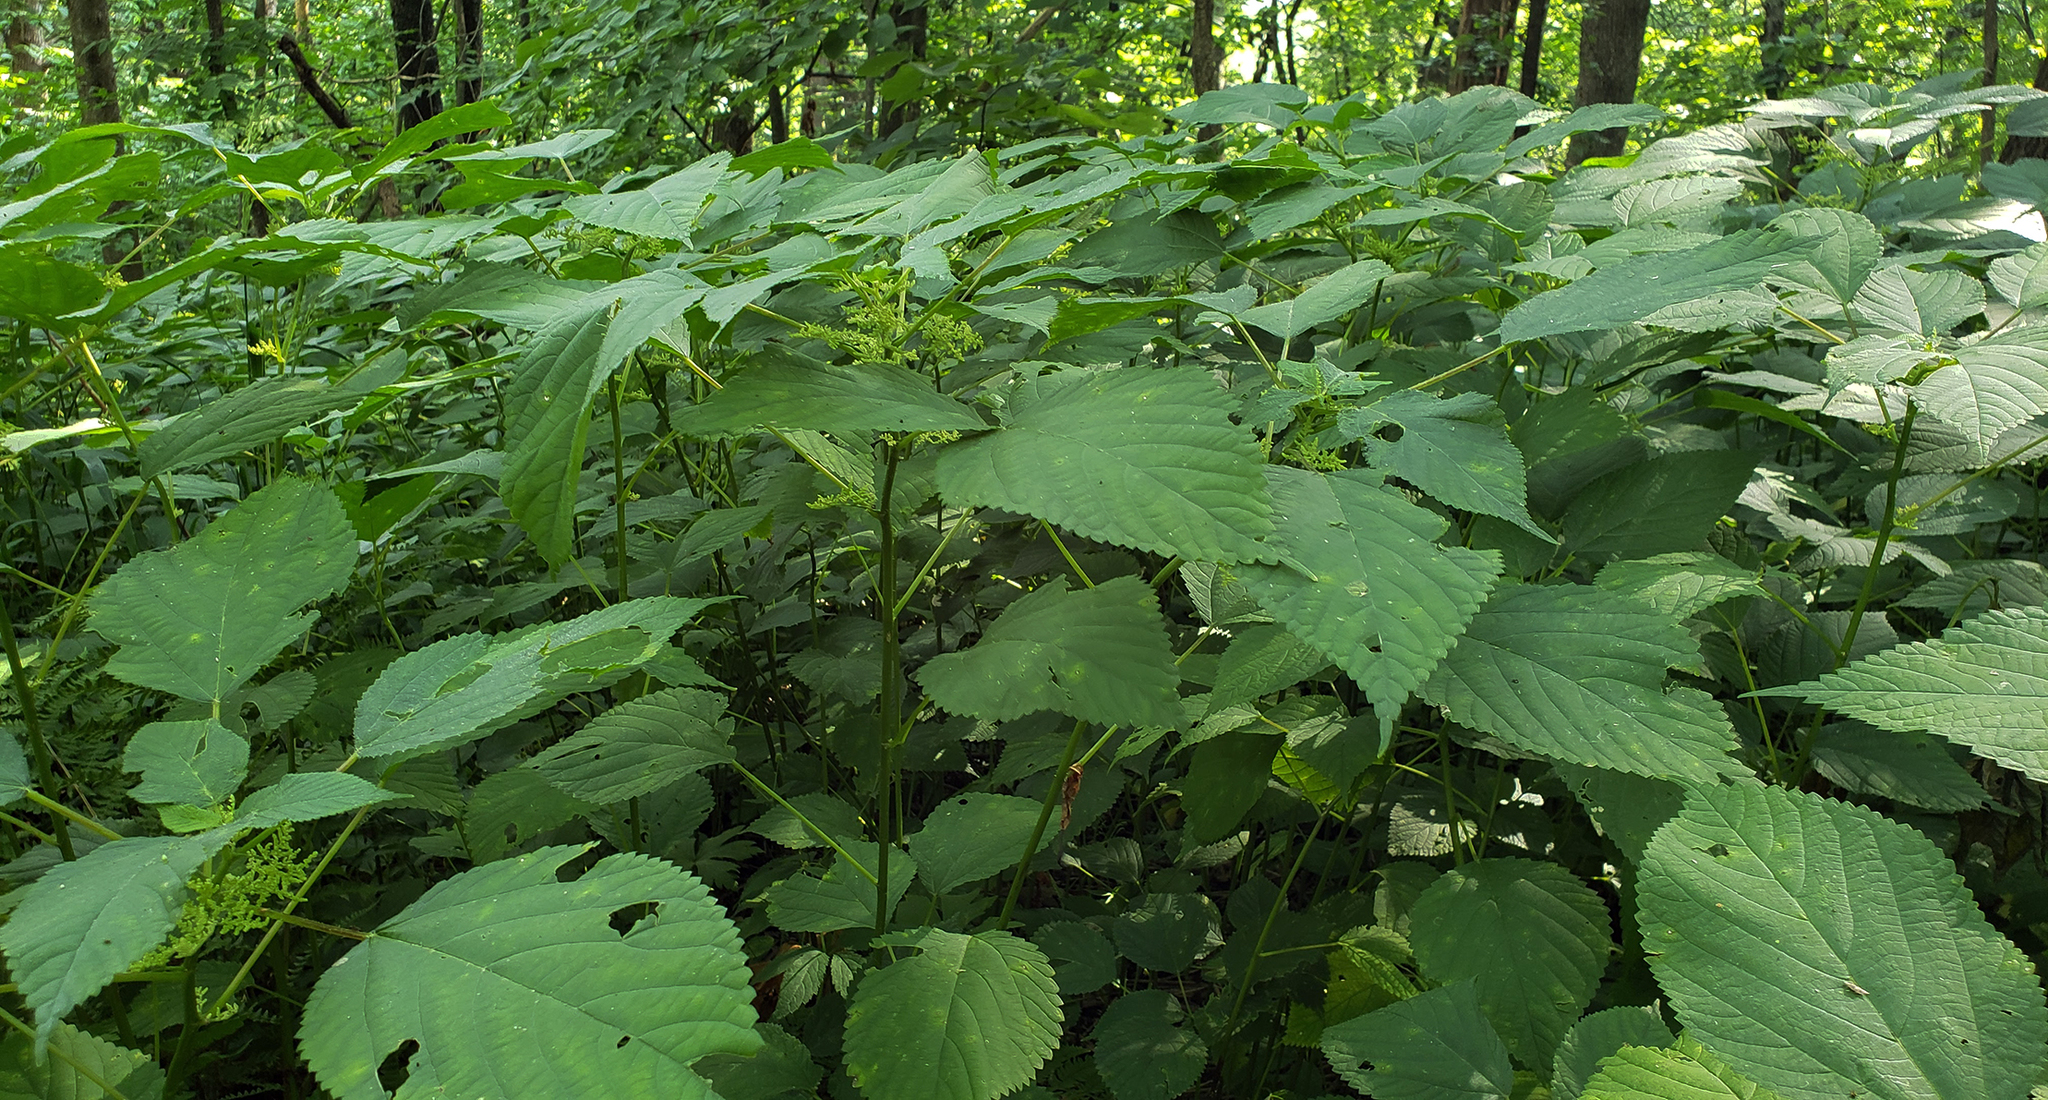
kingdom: Plantae
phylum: Tracheophyta
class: Magnoliopsida
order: Rosales
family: Urticaceae
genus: Laportea
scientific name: Laportea canadensis
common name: Canada nettle
